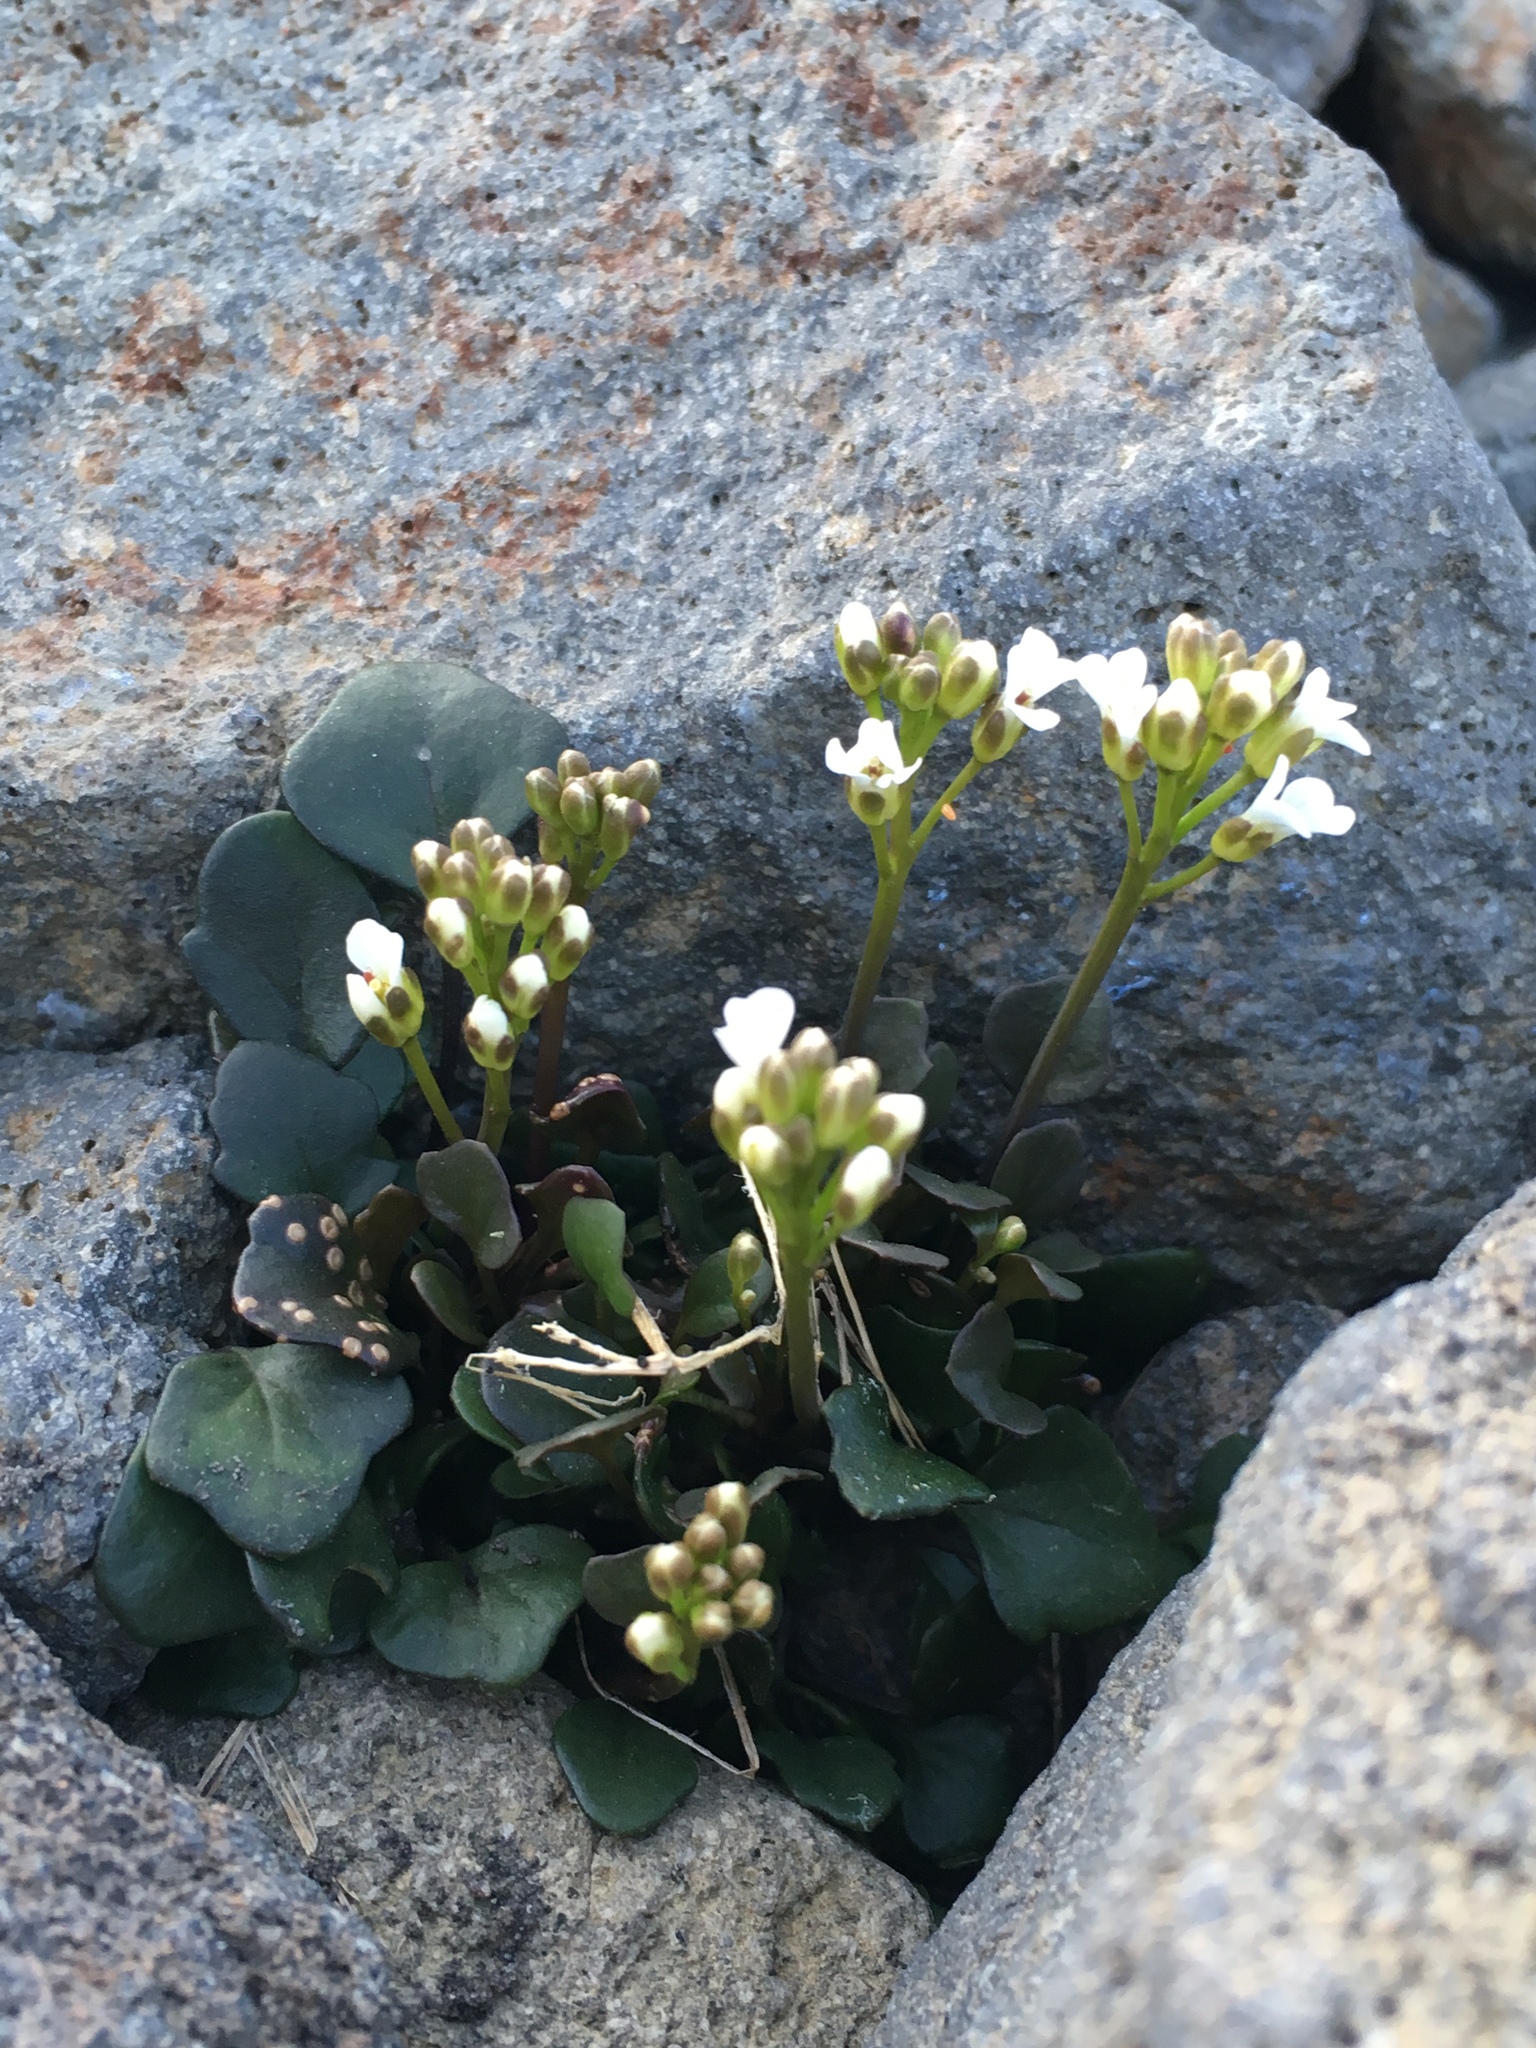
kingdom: Plantae
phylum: Tracheophyta
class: Magnoliopsida
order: Brassicales
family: Brassicaceae
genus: Cardamine
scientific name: Cardamine bellidifolia
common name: Alpine bittercress
